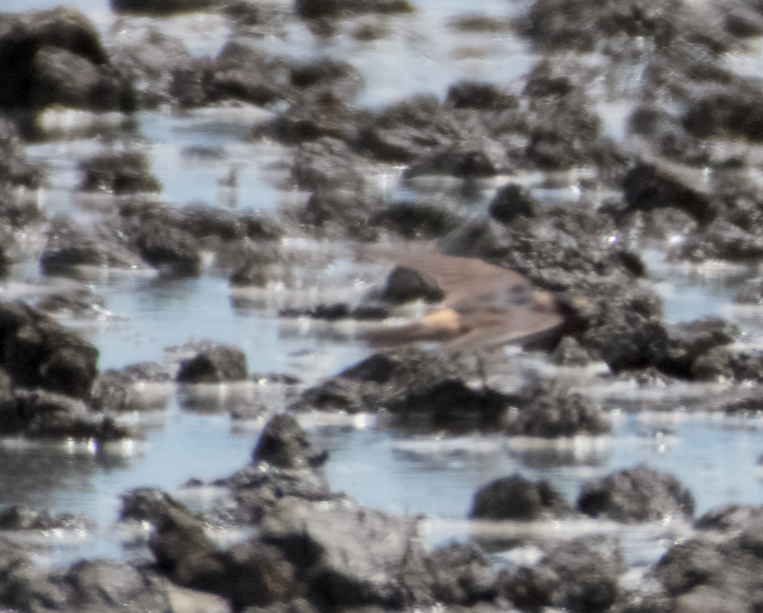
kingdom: Animalia
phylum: Chordata
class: Aves
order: Passeriformes
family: Hirundinidae
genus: Petrochelidon
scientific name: Petrochelidon pyrrhonota
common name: American cliff swallow
